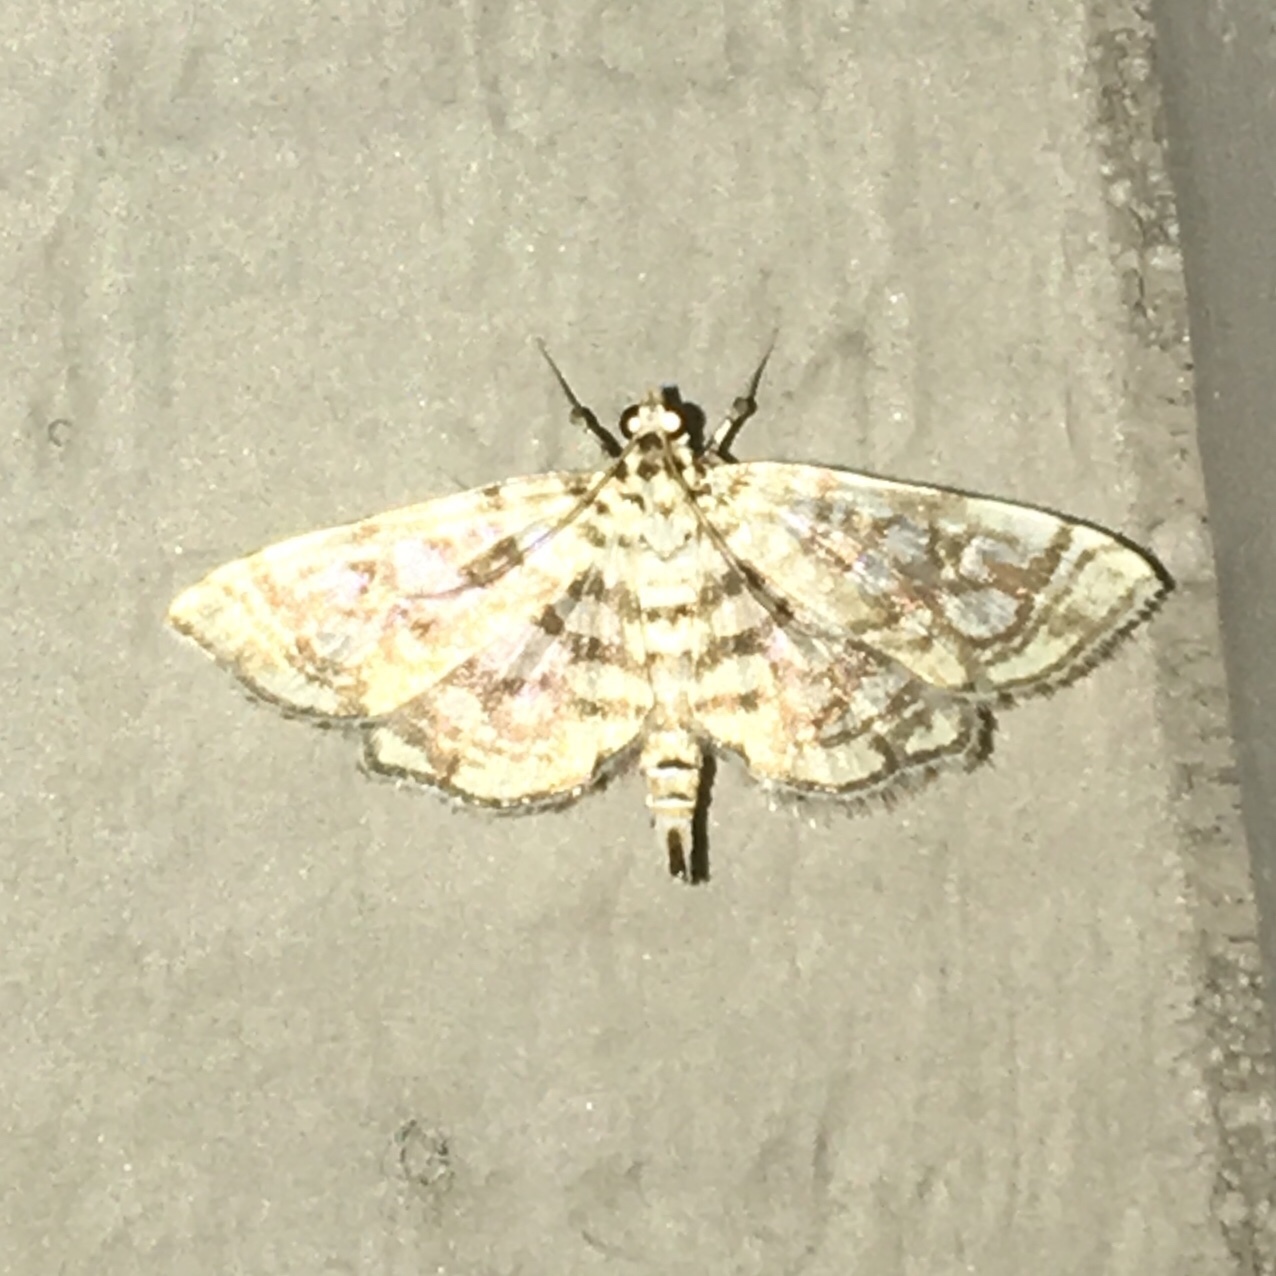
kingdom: Animalia
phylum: Arthropoda
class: Insecta
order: Lepidoptera
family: Crambidae
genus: Lygropia
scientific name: Lygropia rivulalis
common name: Bog lygropia moth
